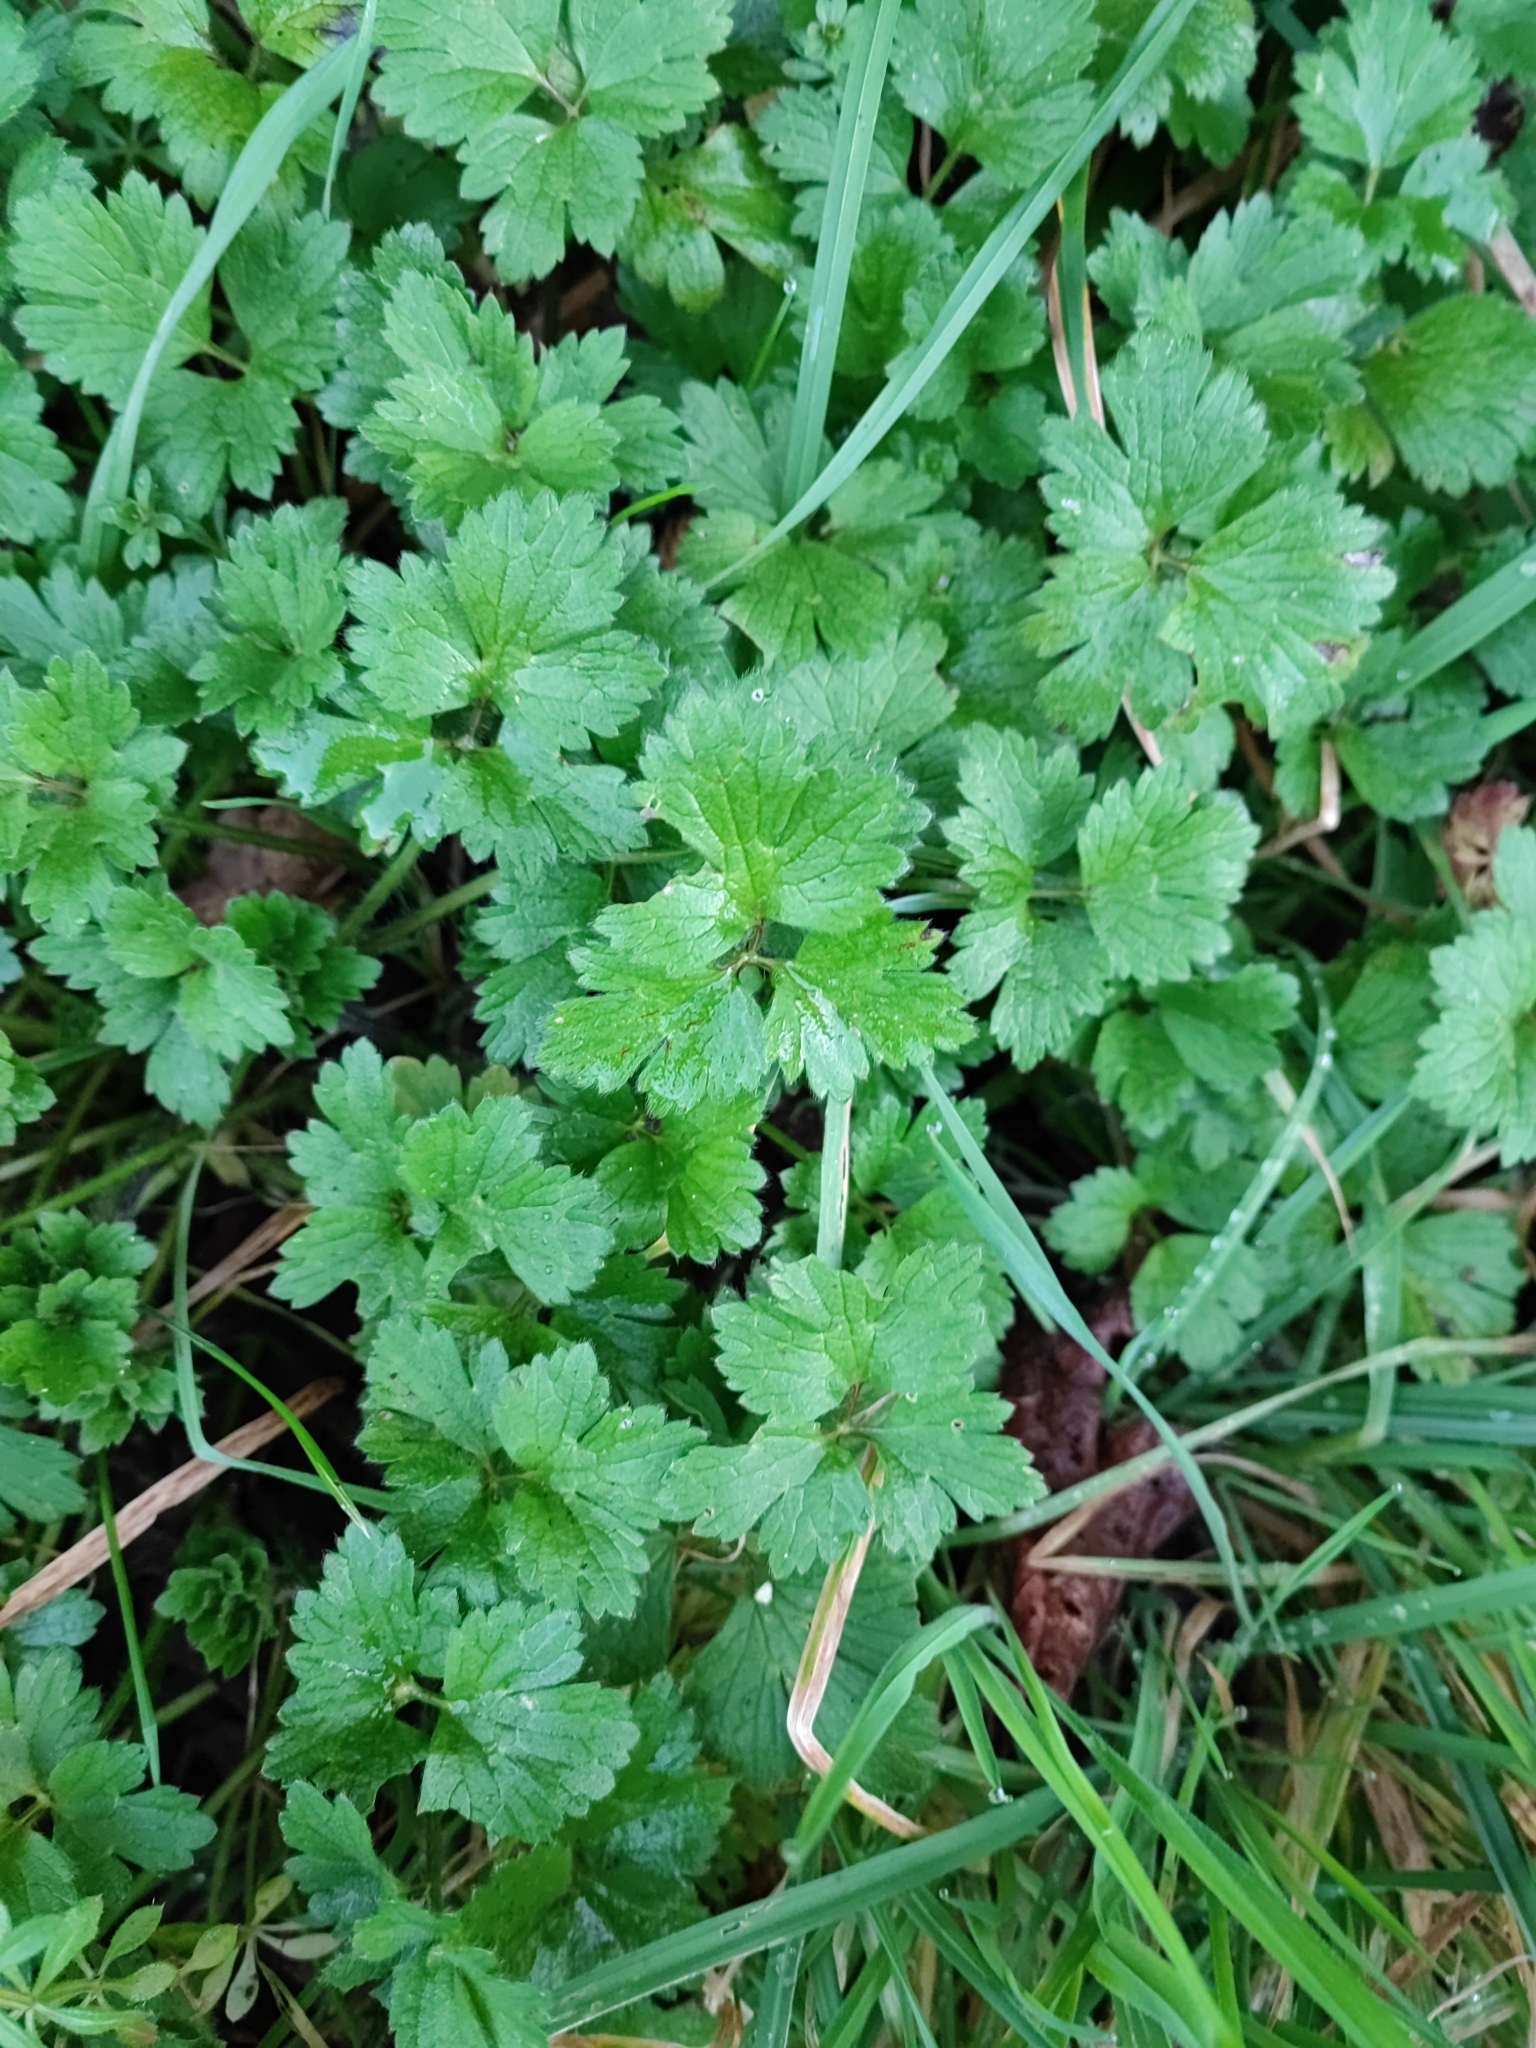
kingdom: Plantae
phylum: Tracheophyta
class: Magnoliopsida
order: Ranunculales
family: Ranunculaceae
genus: Ranunculus
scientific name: Ranunculus repens
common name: Creeping buttercup
